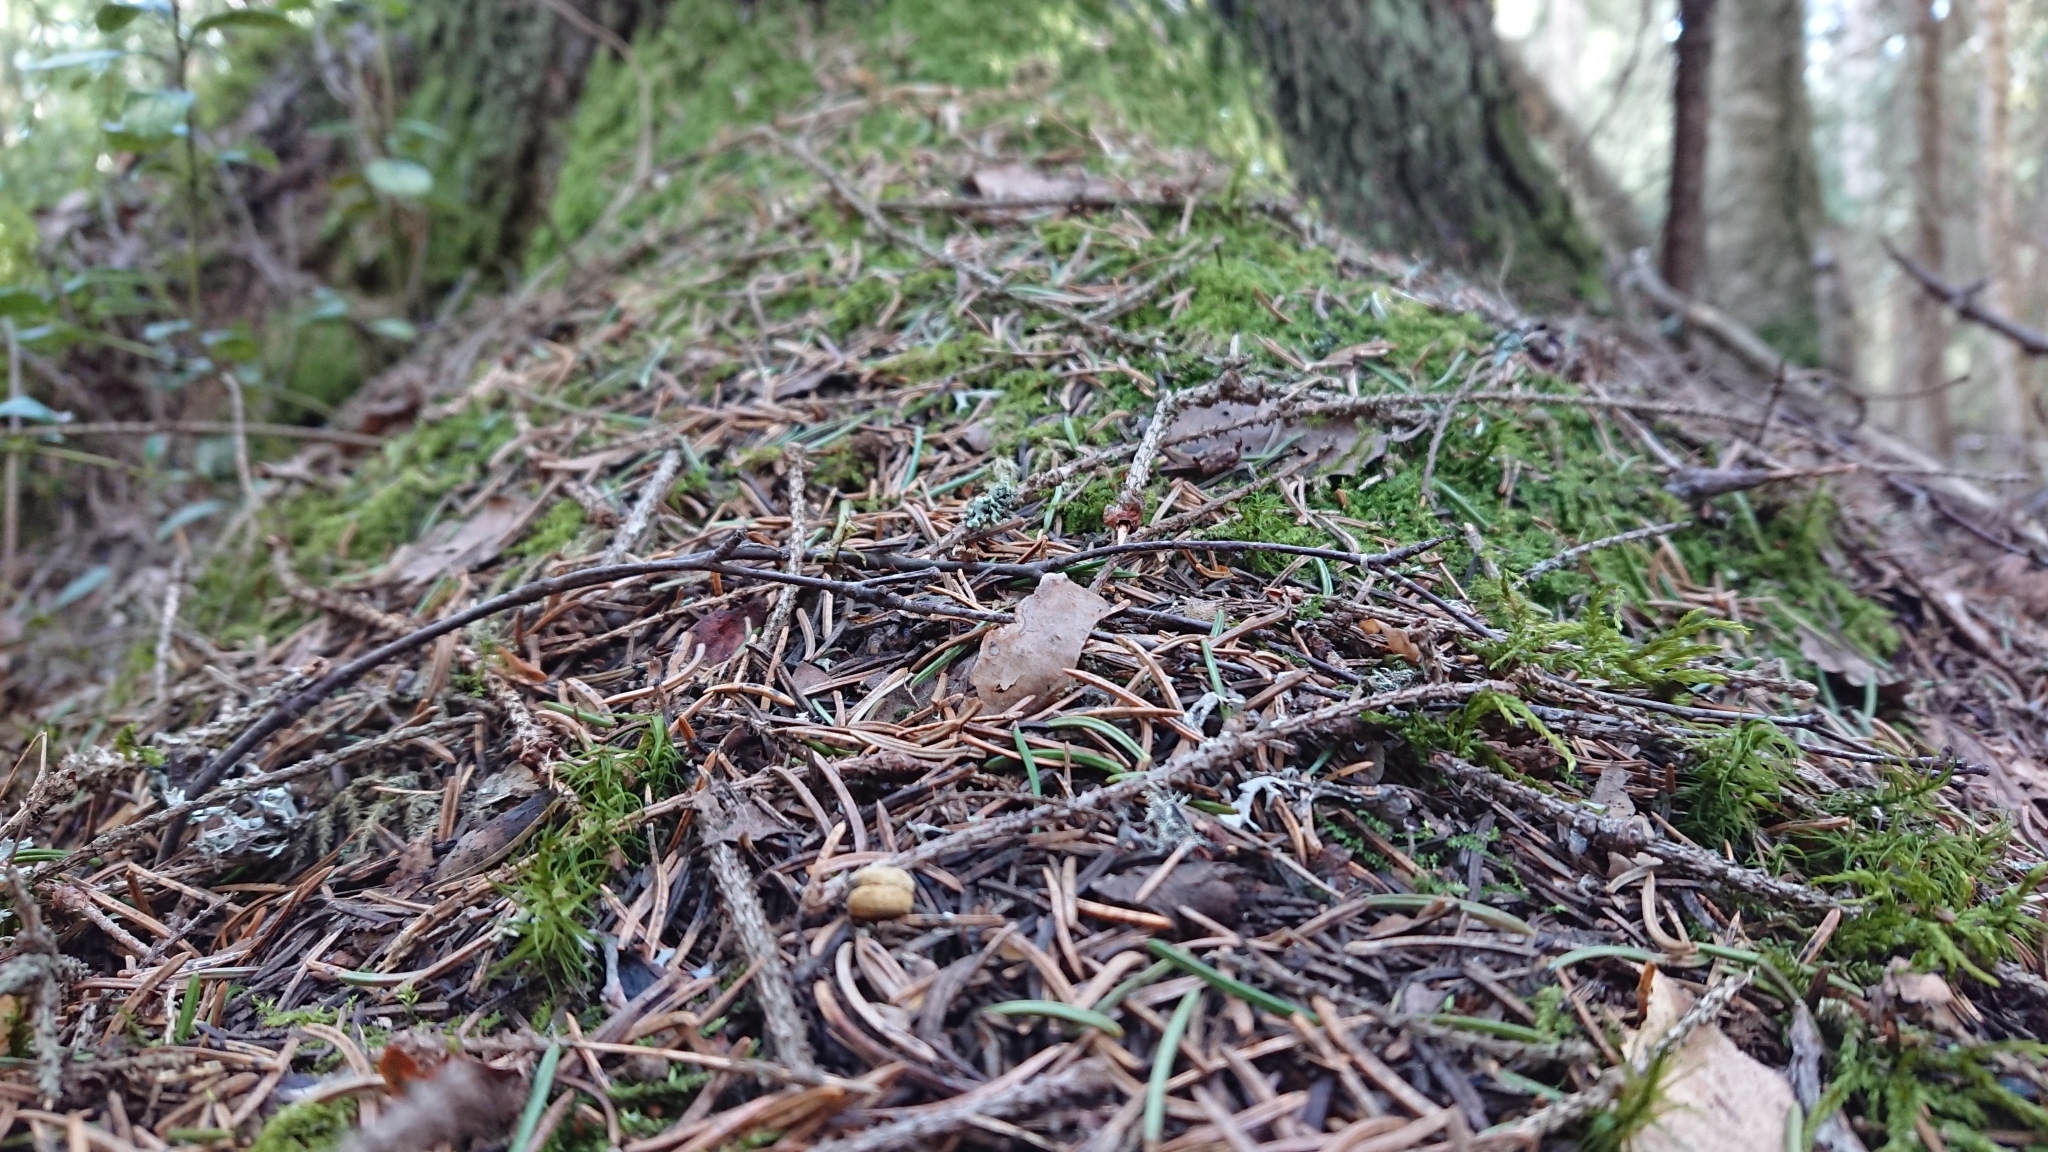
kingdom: Animalia
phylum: Chordata
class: Mammalia
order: Rodentia
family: Sciuridae
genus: Pteromys
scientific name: Pteromys volans
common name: Siberian flying squirrel
